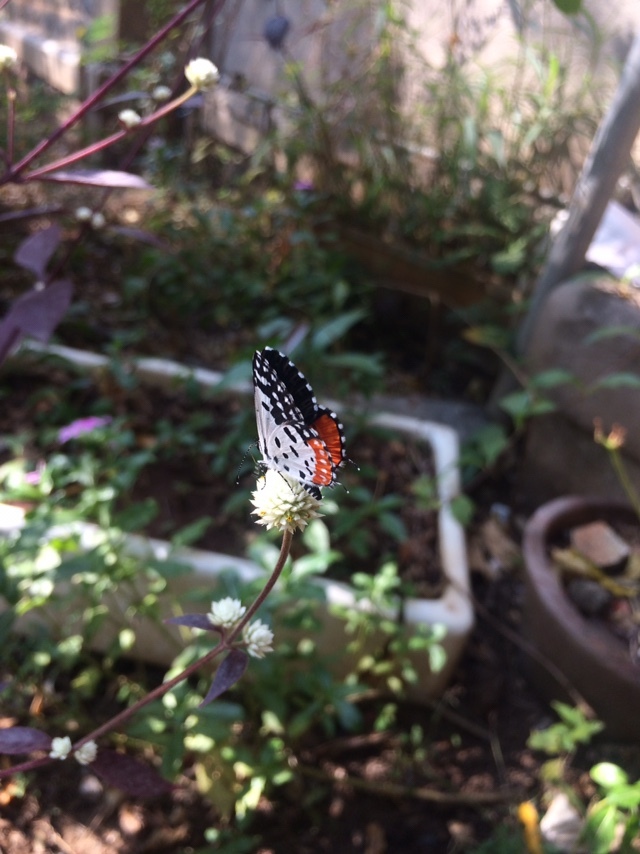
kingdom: Animalia
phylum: Arthropoda
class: Insecta
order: Lepidoptera
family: Lycaenidae
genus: Talicada
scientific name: Talicada nyseus
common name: Red pierrot
